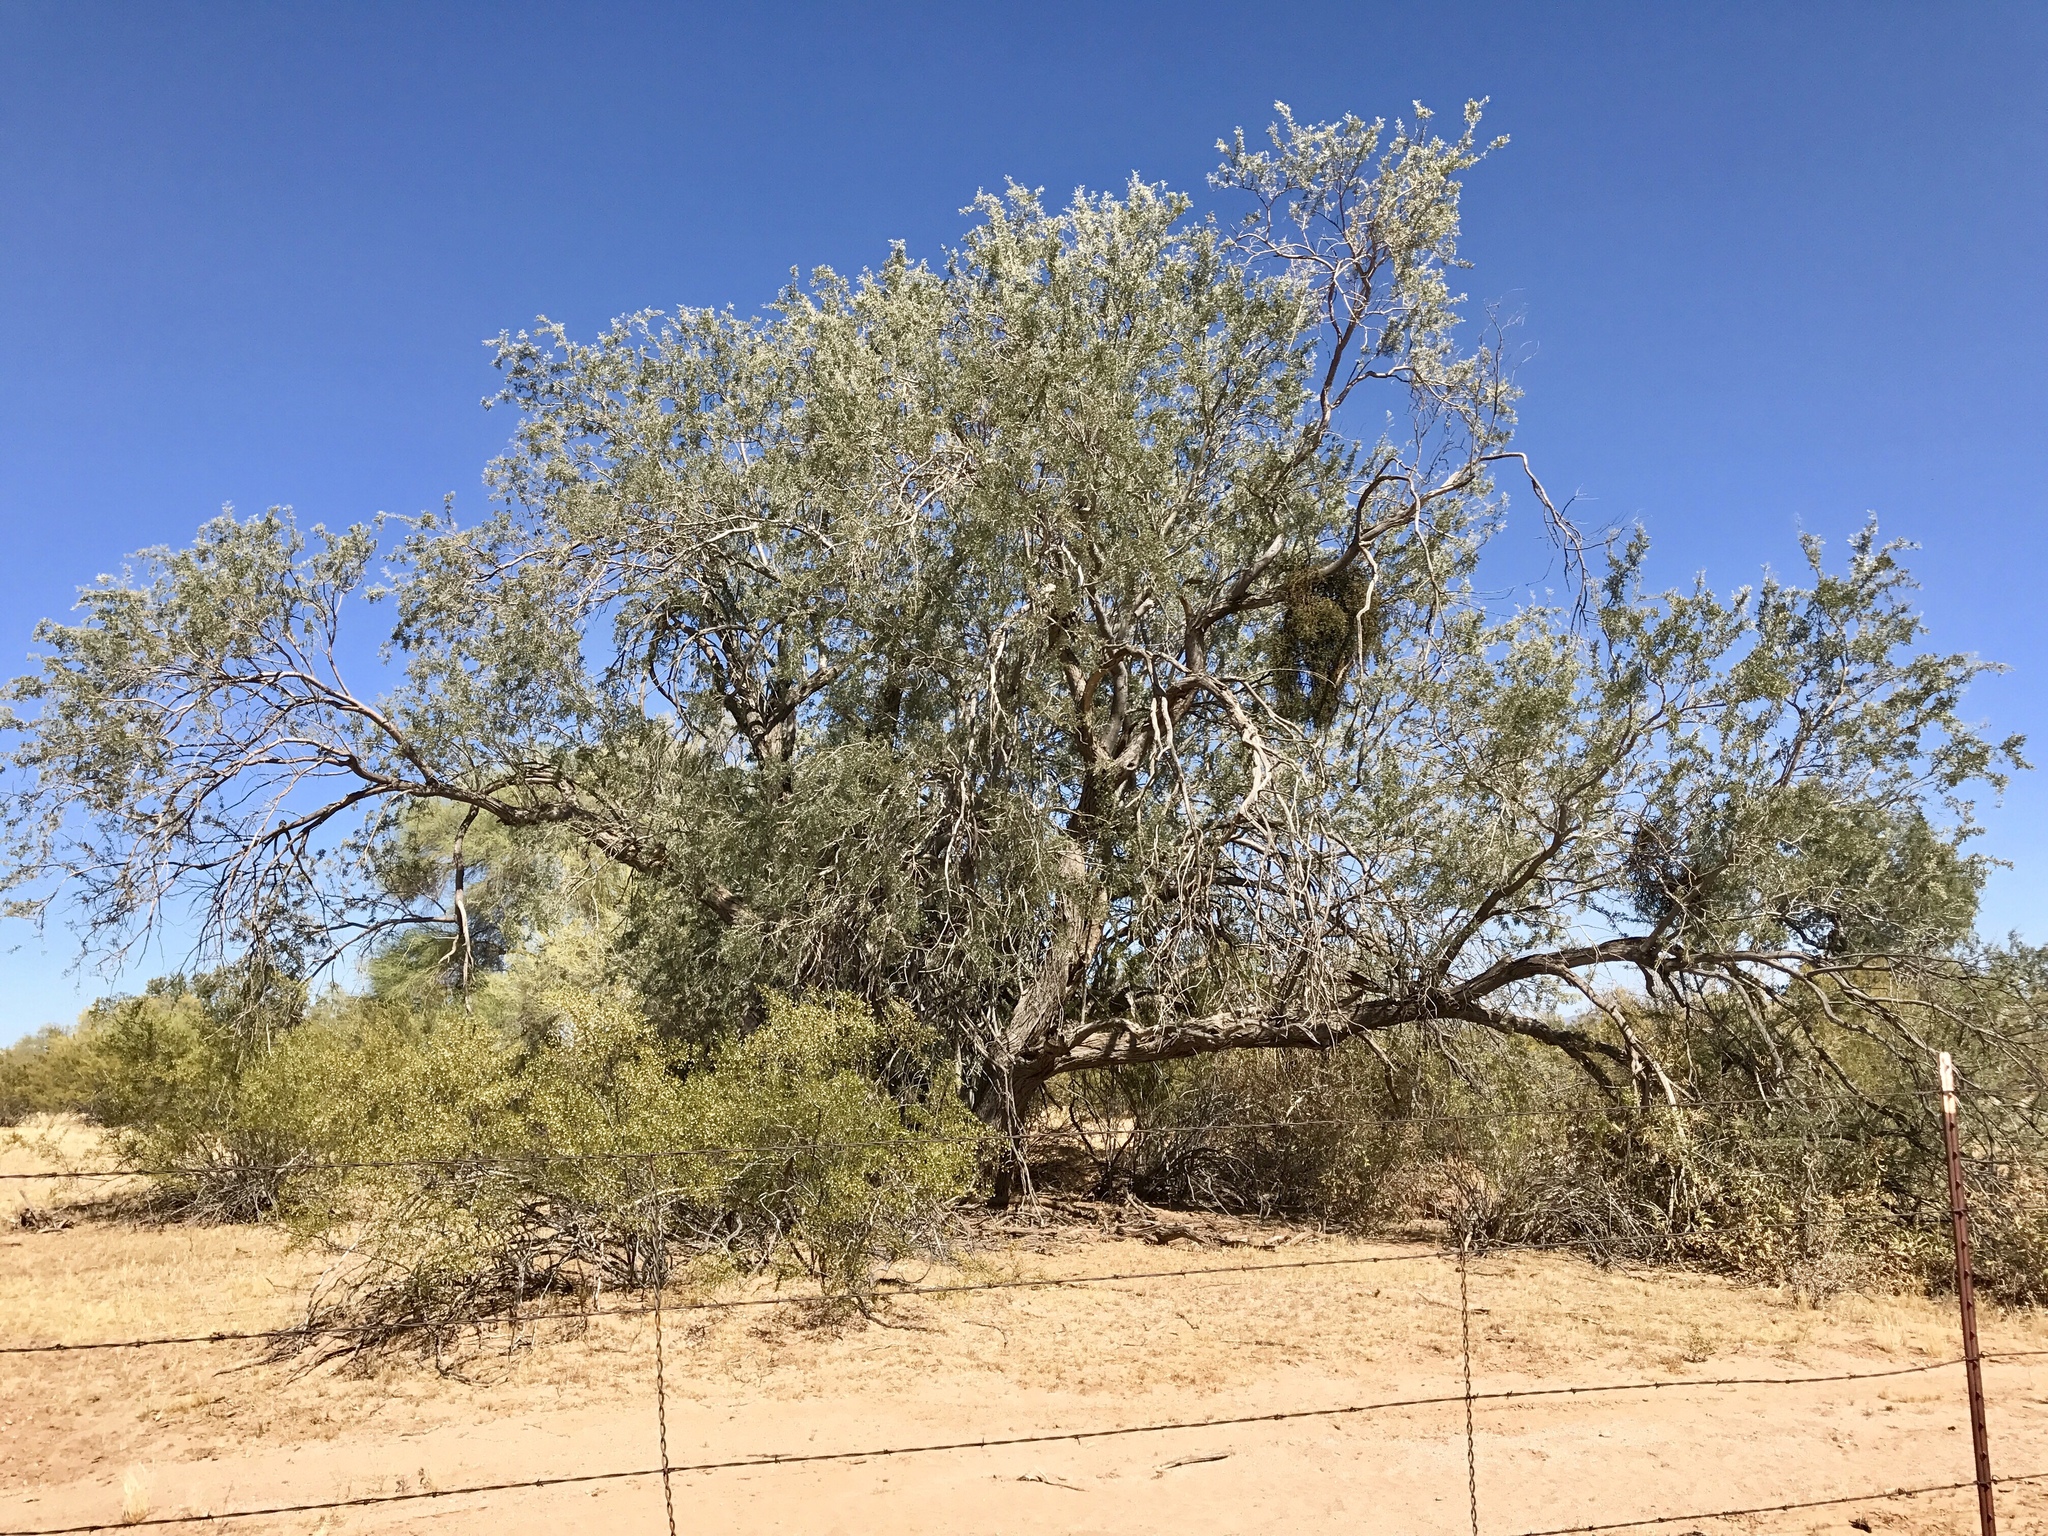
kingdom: Plantae
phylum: Tracheophyta
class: Magnoliopsida
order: Fabales
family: Fabaceae
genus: Olneya
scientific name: Olneya tesota
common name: Desert ironwood
